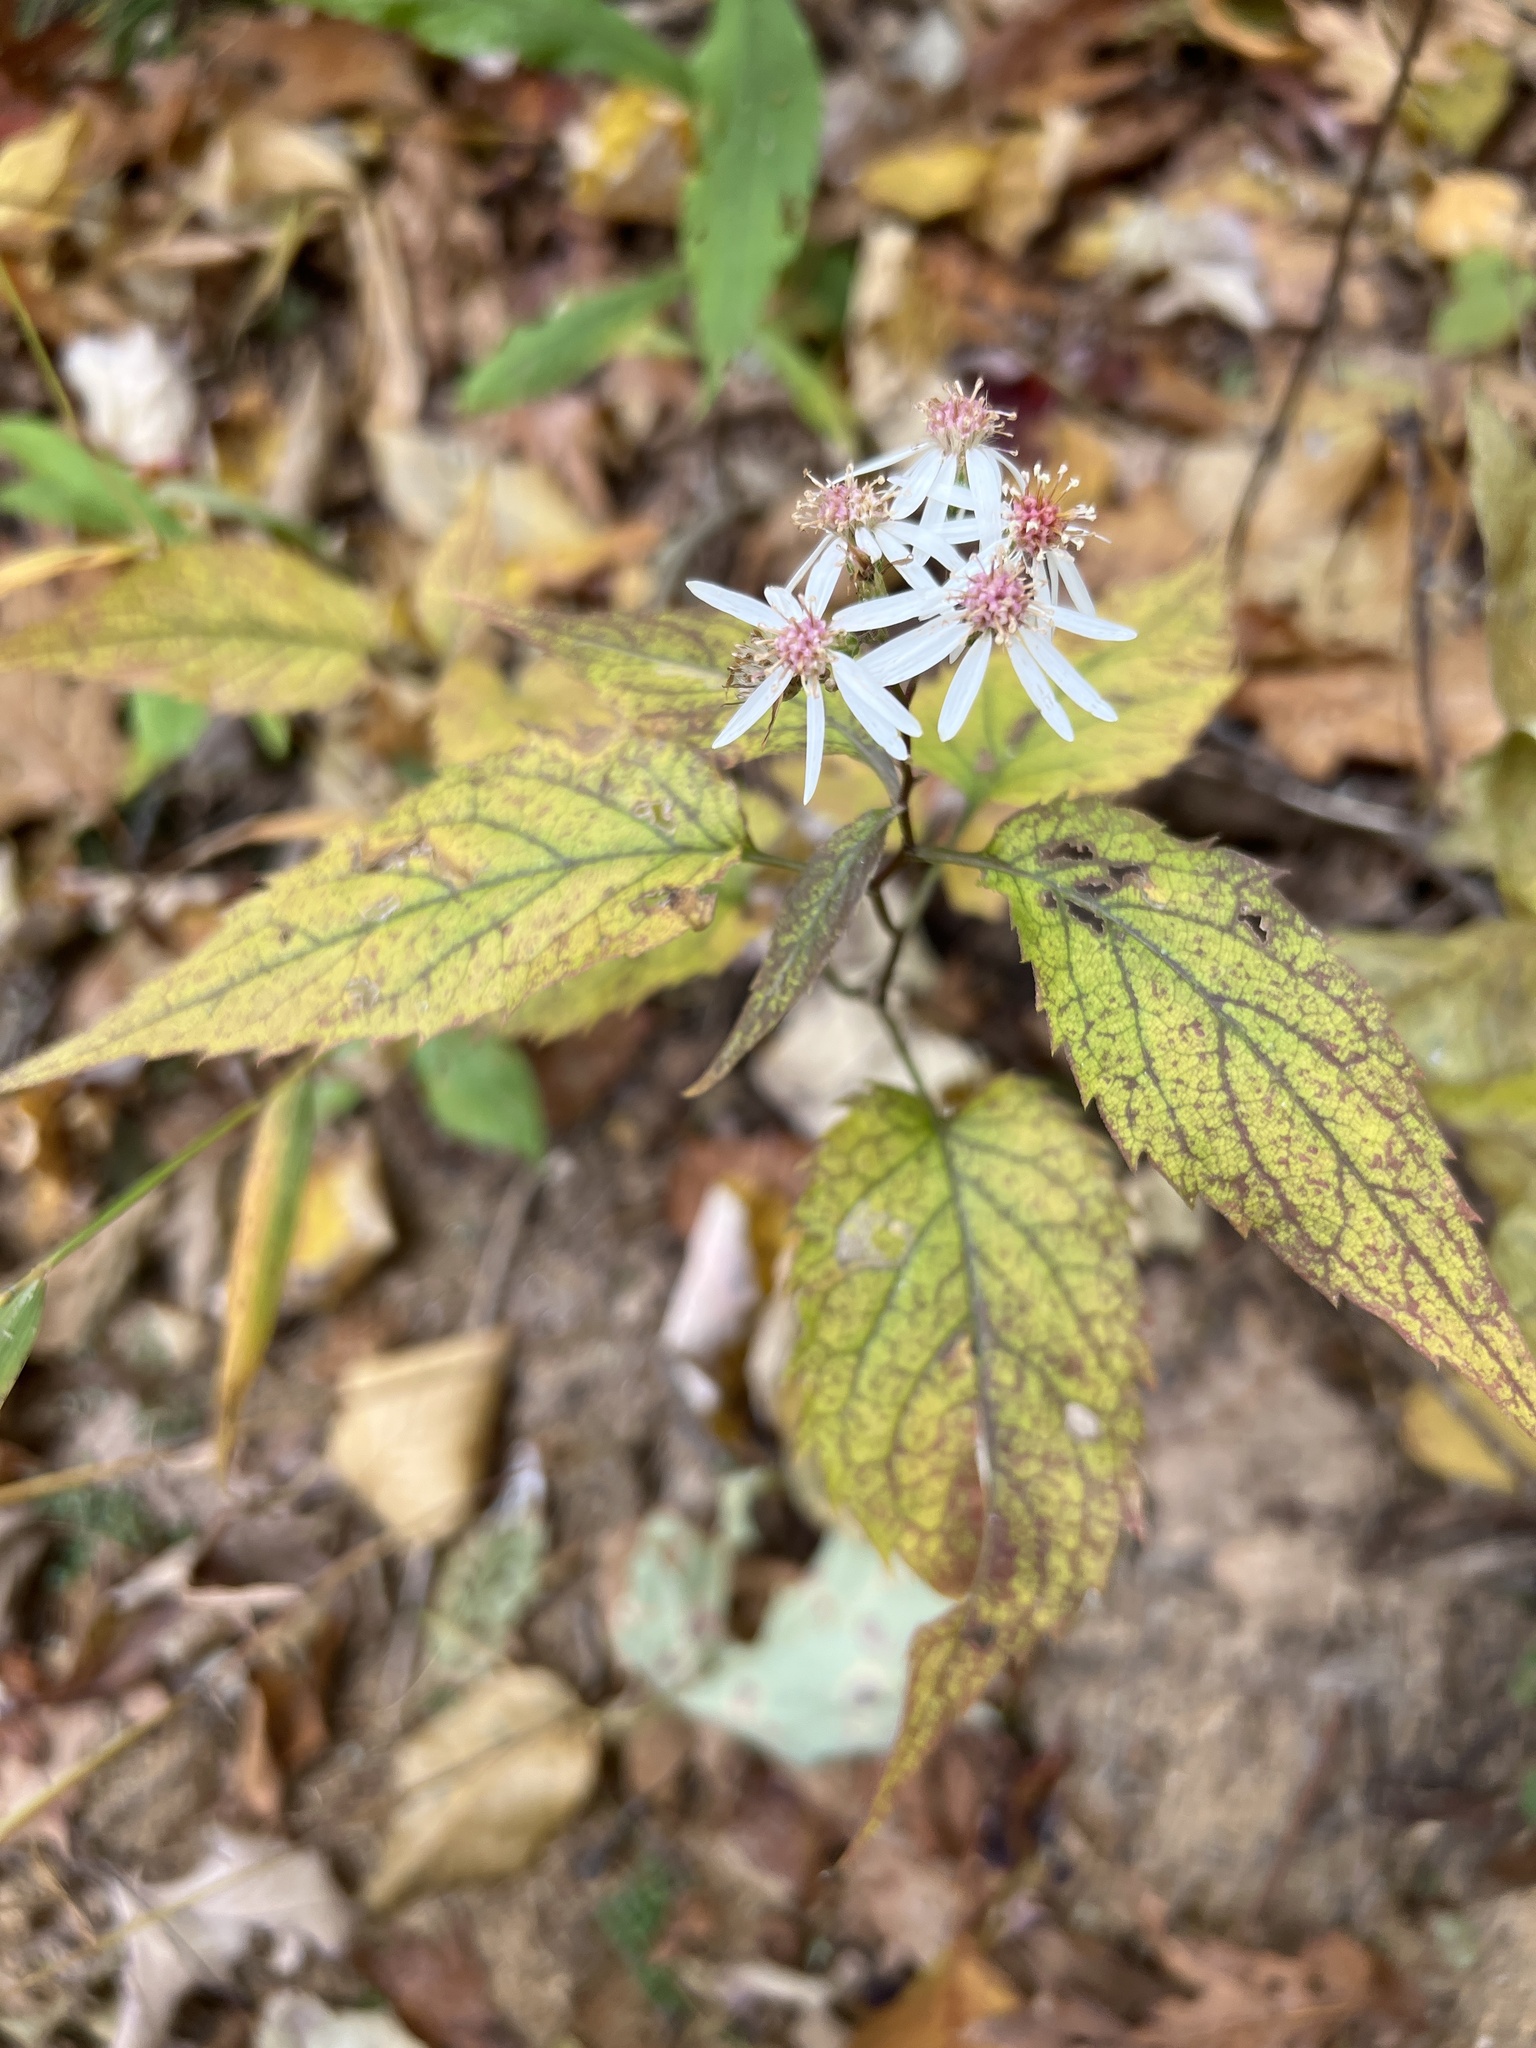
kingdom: Plantae
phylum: Tracheophyta
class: Magnoliopsida
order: Asterales
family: Asteraceae
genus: Eurybia
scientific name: Eurybia divaricata
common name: White wood aster
